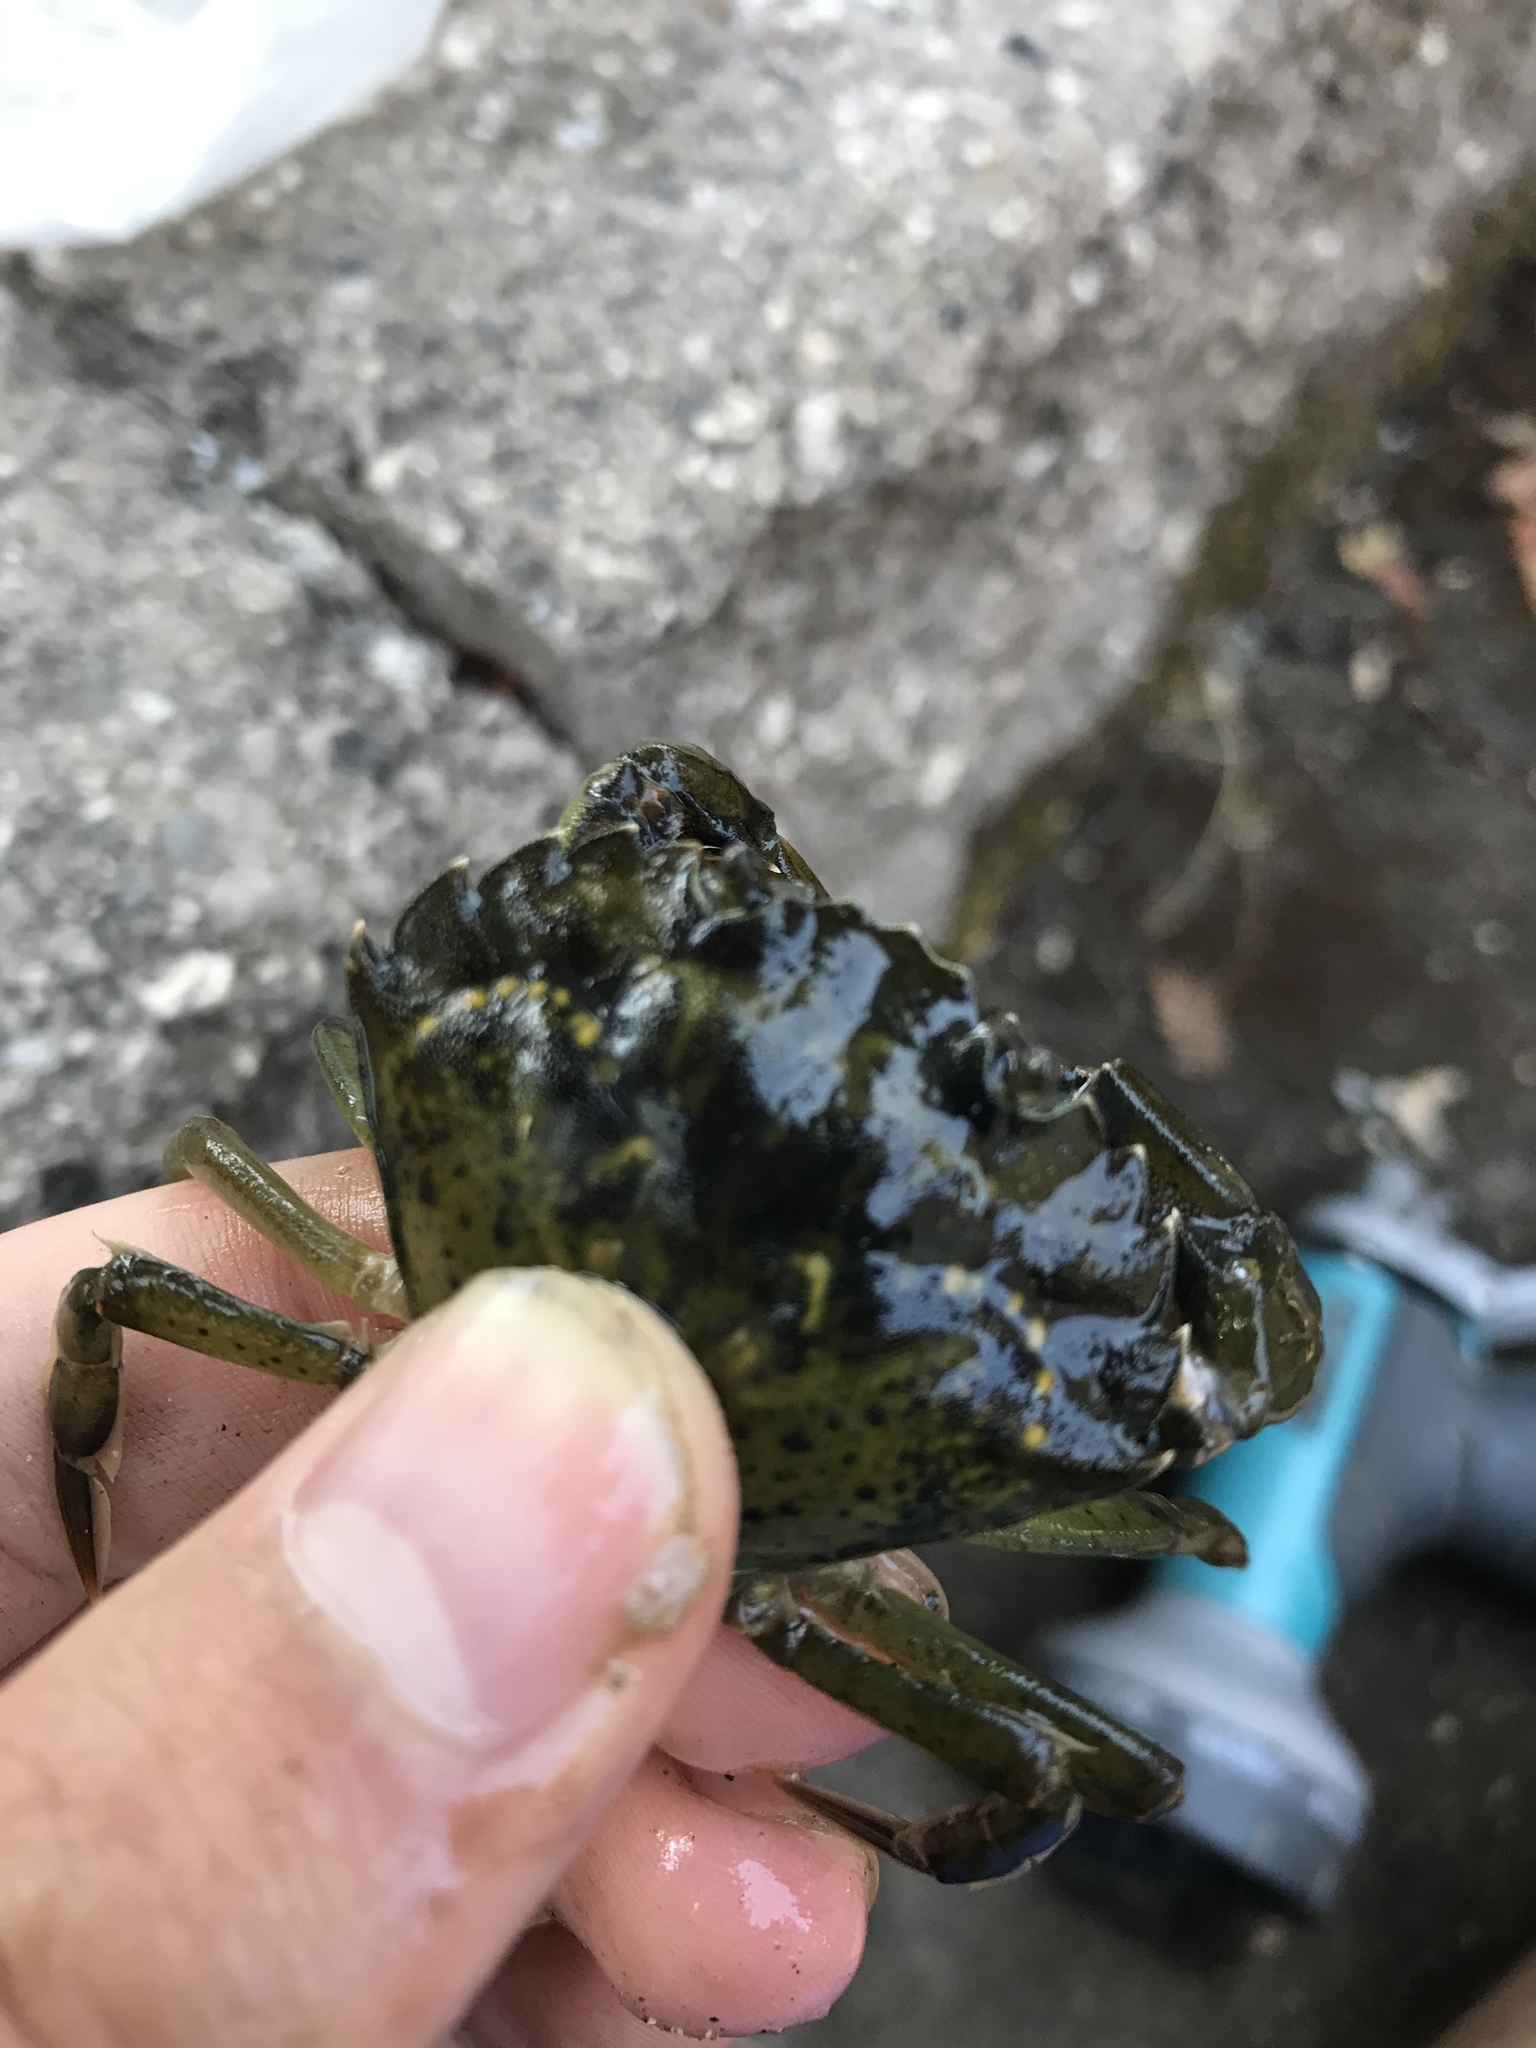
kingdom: Animalia
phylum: Arthropoda
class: Malacostraca
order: Decapoda
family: Carcinidae
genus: Carcinus
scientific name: Carcinus maenas
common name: European green crab
